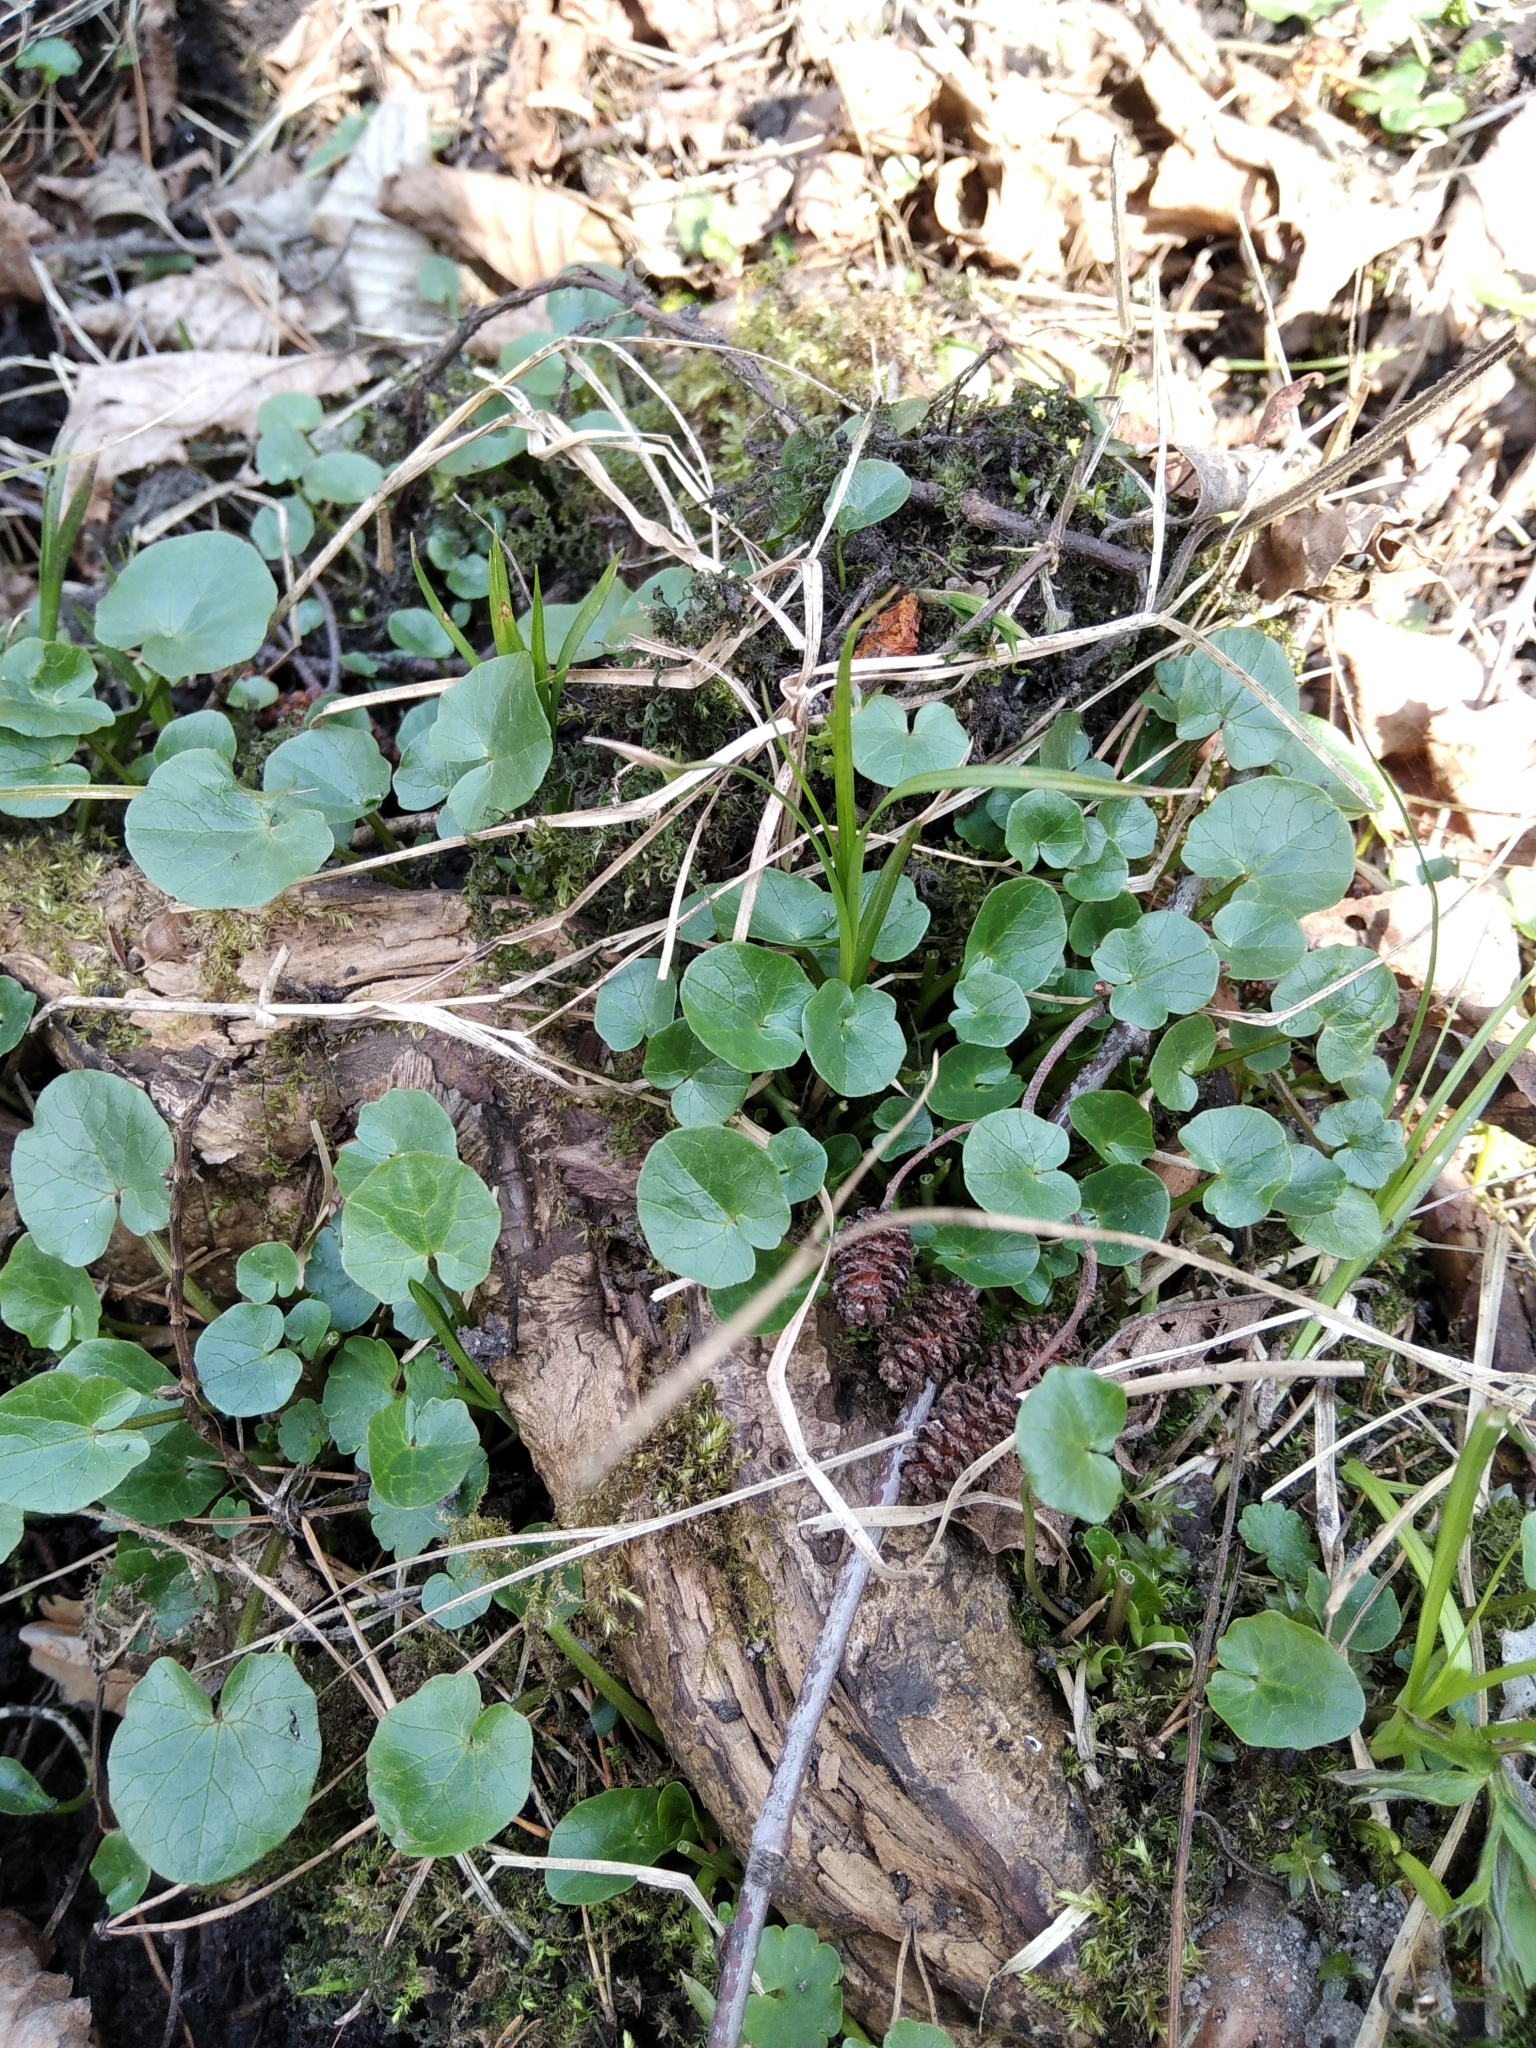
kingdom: Plantae
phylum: Tracheophyta
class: Magnoliopsida
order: Ranunculales
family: Ranunculaceae
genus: Ficaria
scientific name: Ficaria verna
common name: Lesser celandine
